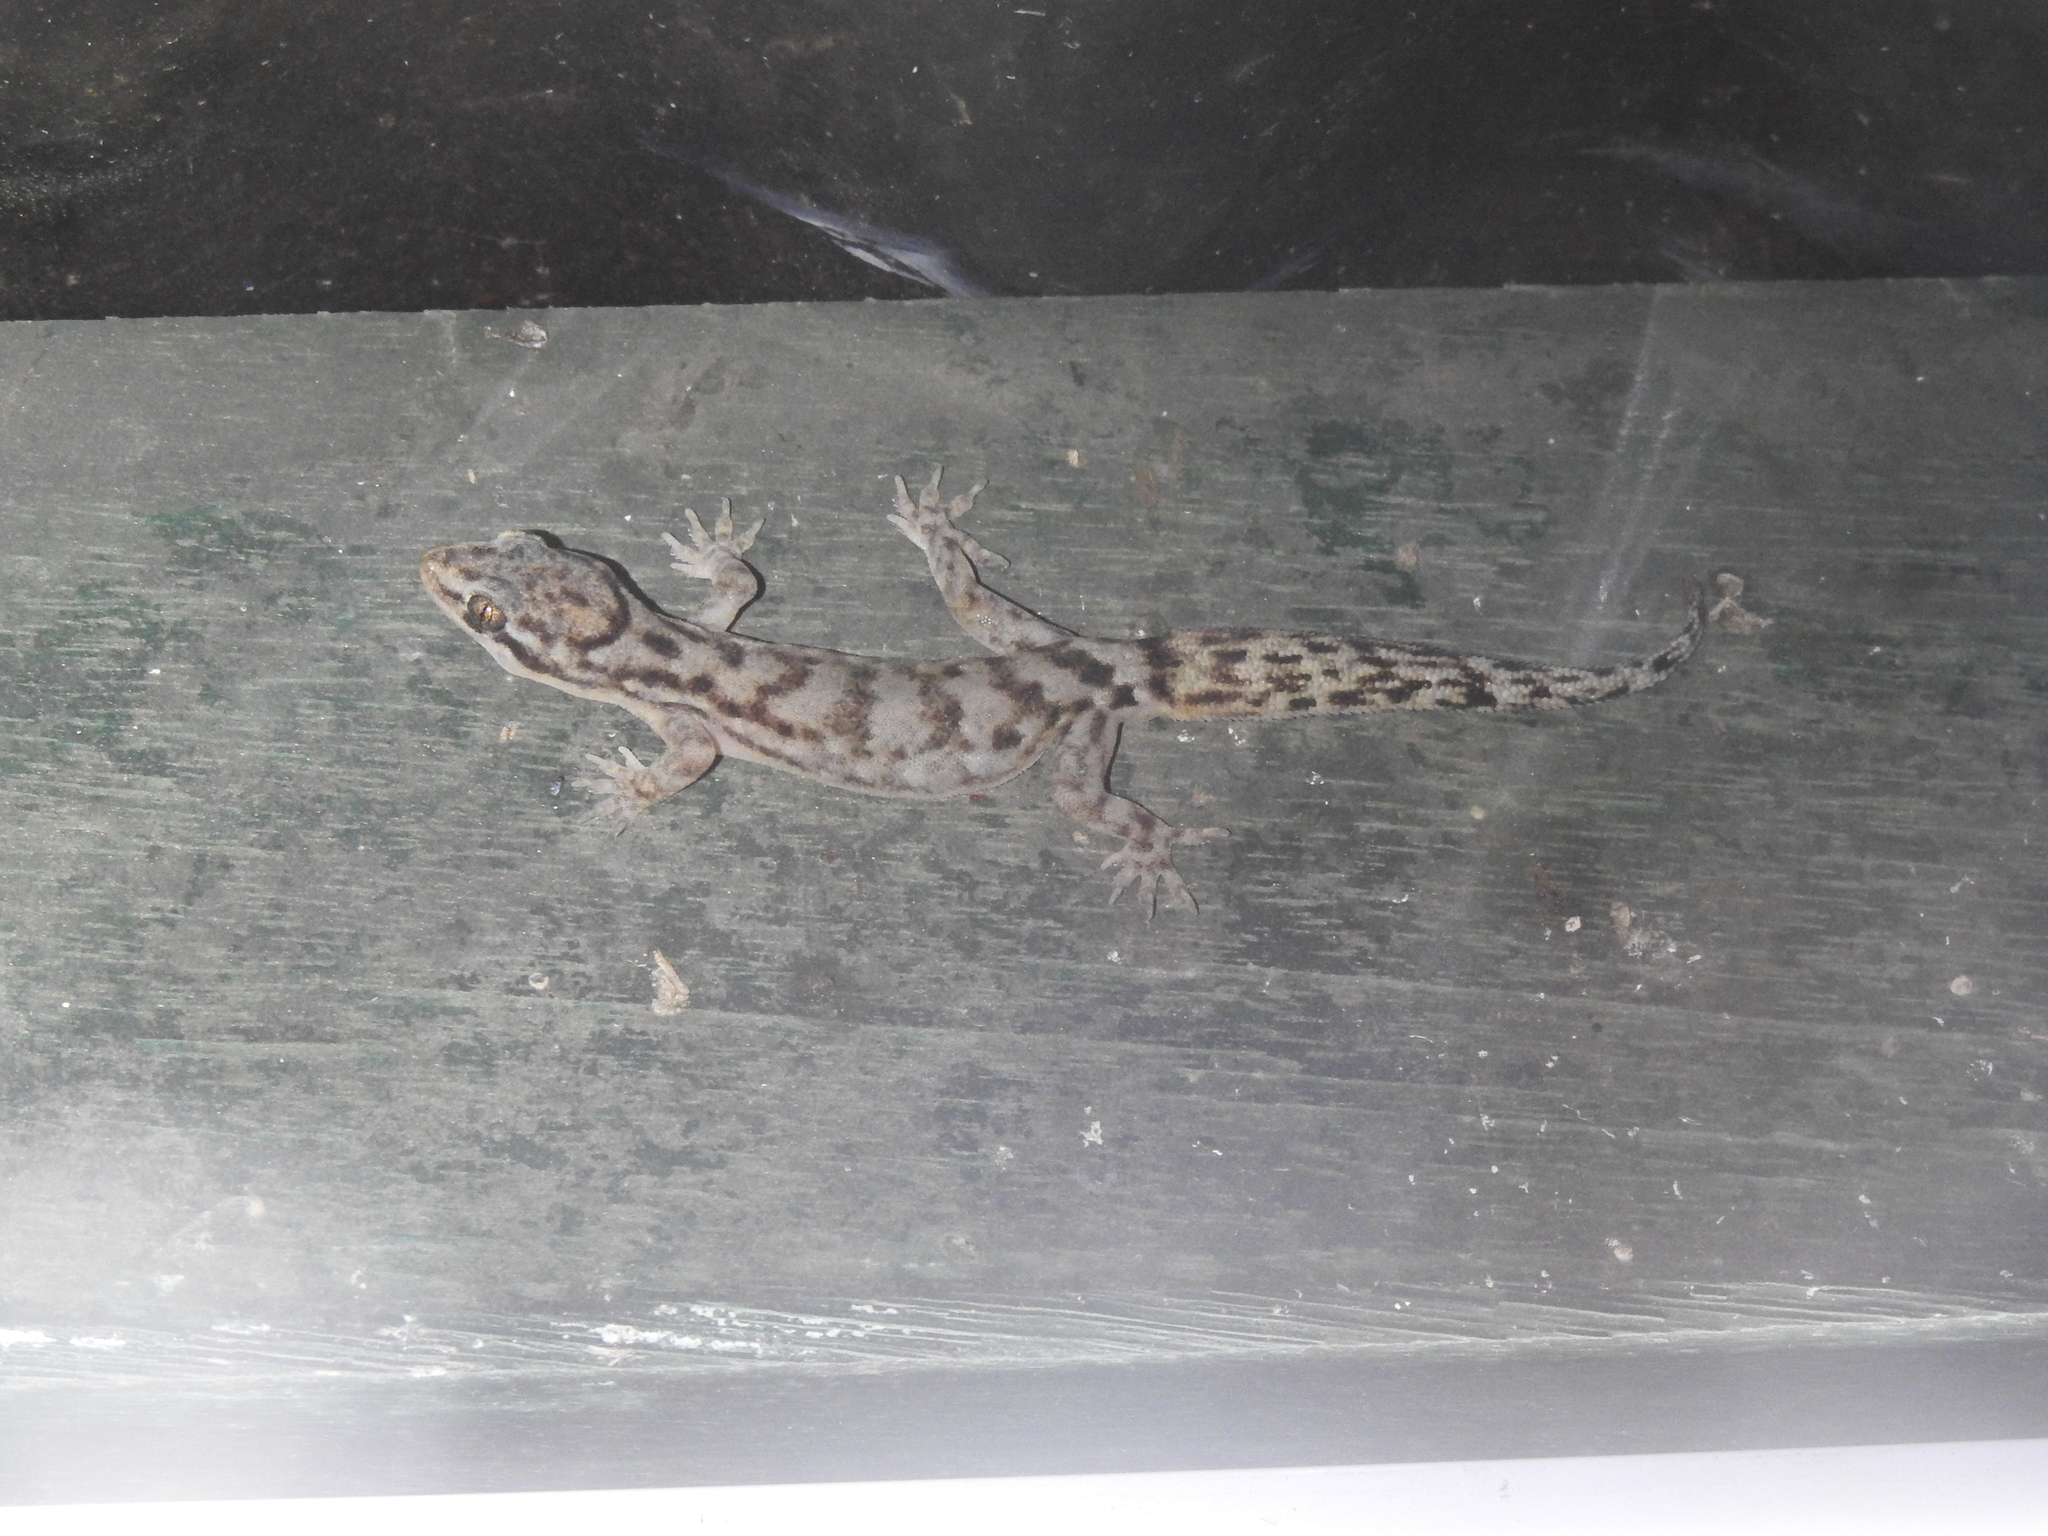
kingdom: Animalia
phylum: Chordata
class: Squamata
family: Gekkonidae
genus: Dravidogecko
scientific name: Dravidogecko tholpalli
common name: Kodaikanal dravidogecko
